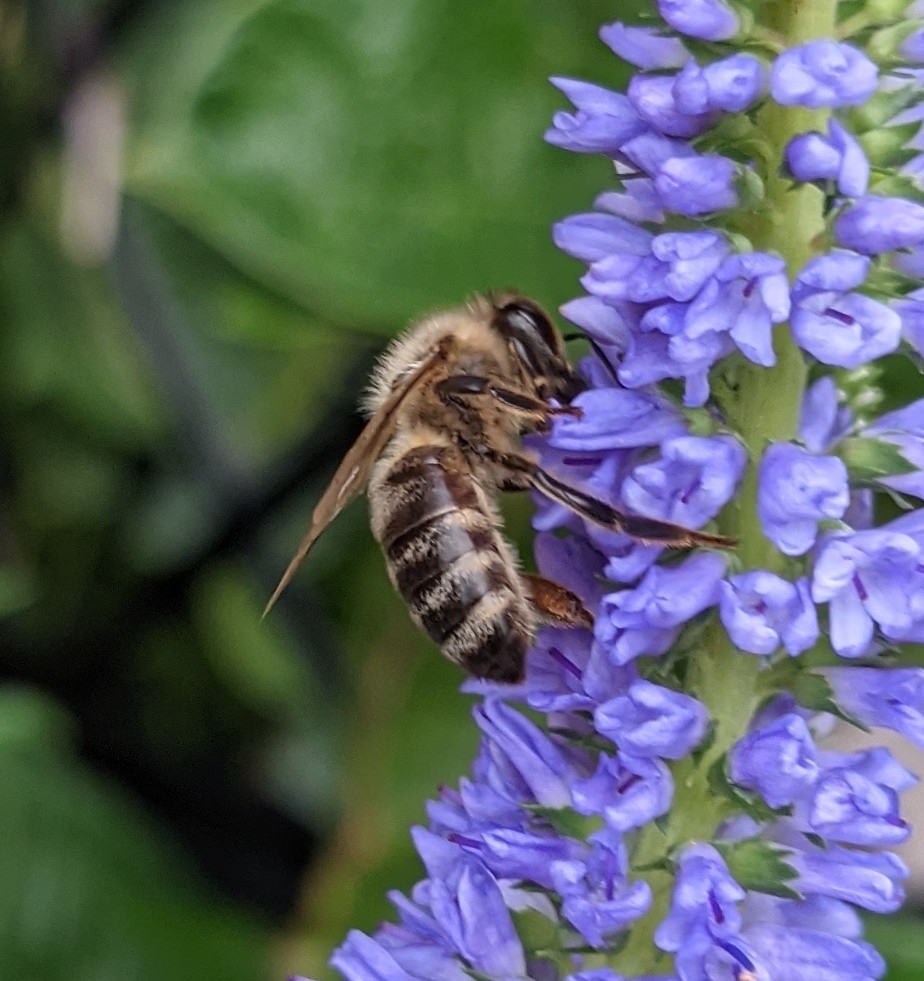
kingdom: Animalia
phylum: Arthropoda
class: Insecta
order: Hymenoptera
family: Apidae
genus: Apis
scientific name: Apis mellifera
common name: Honey bee
